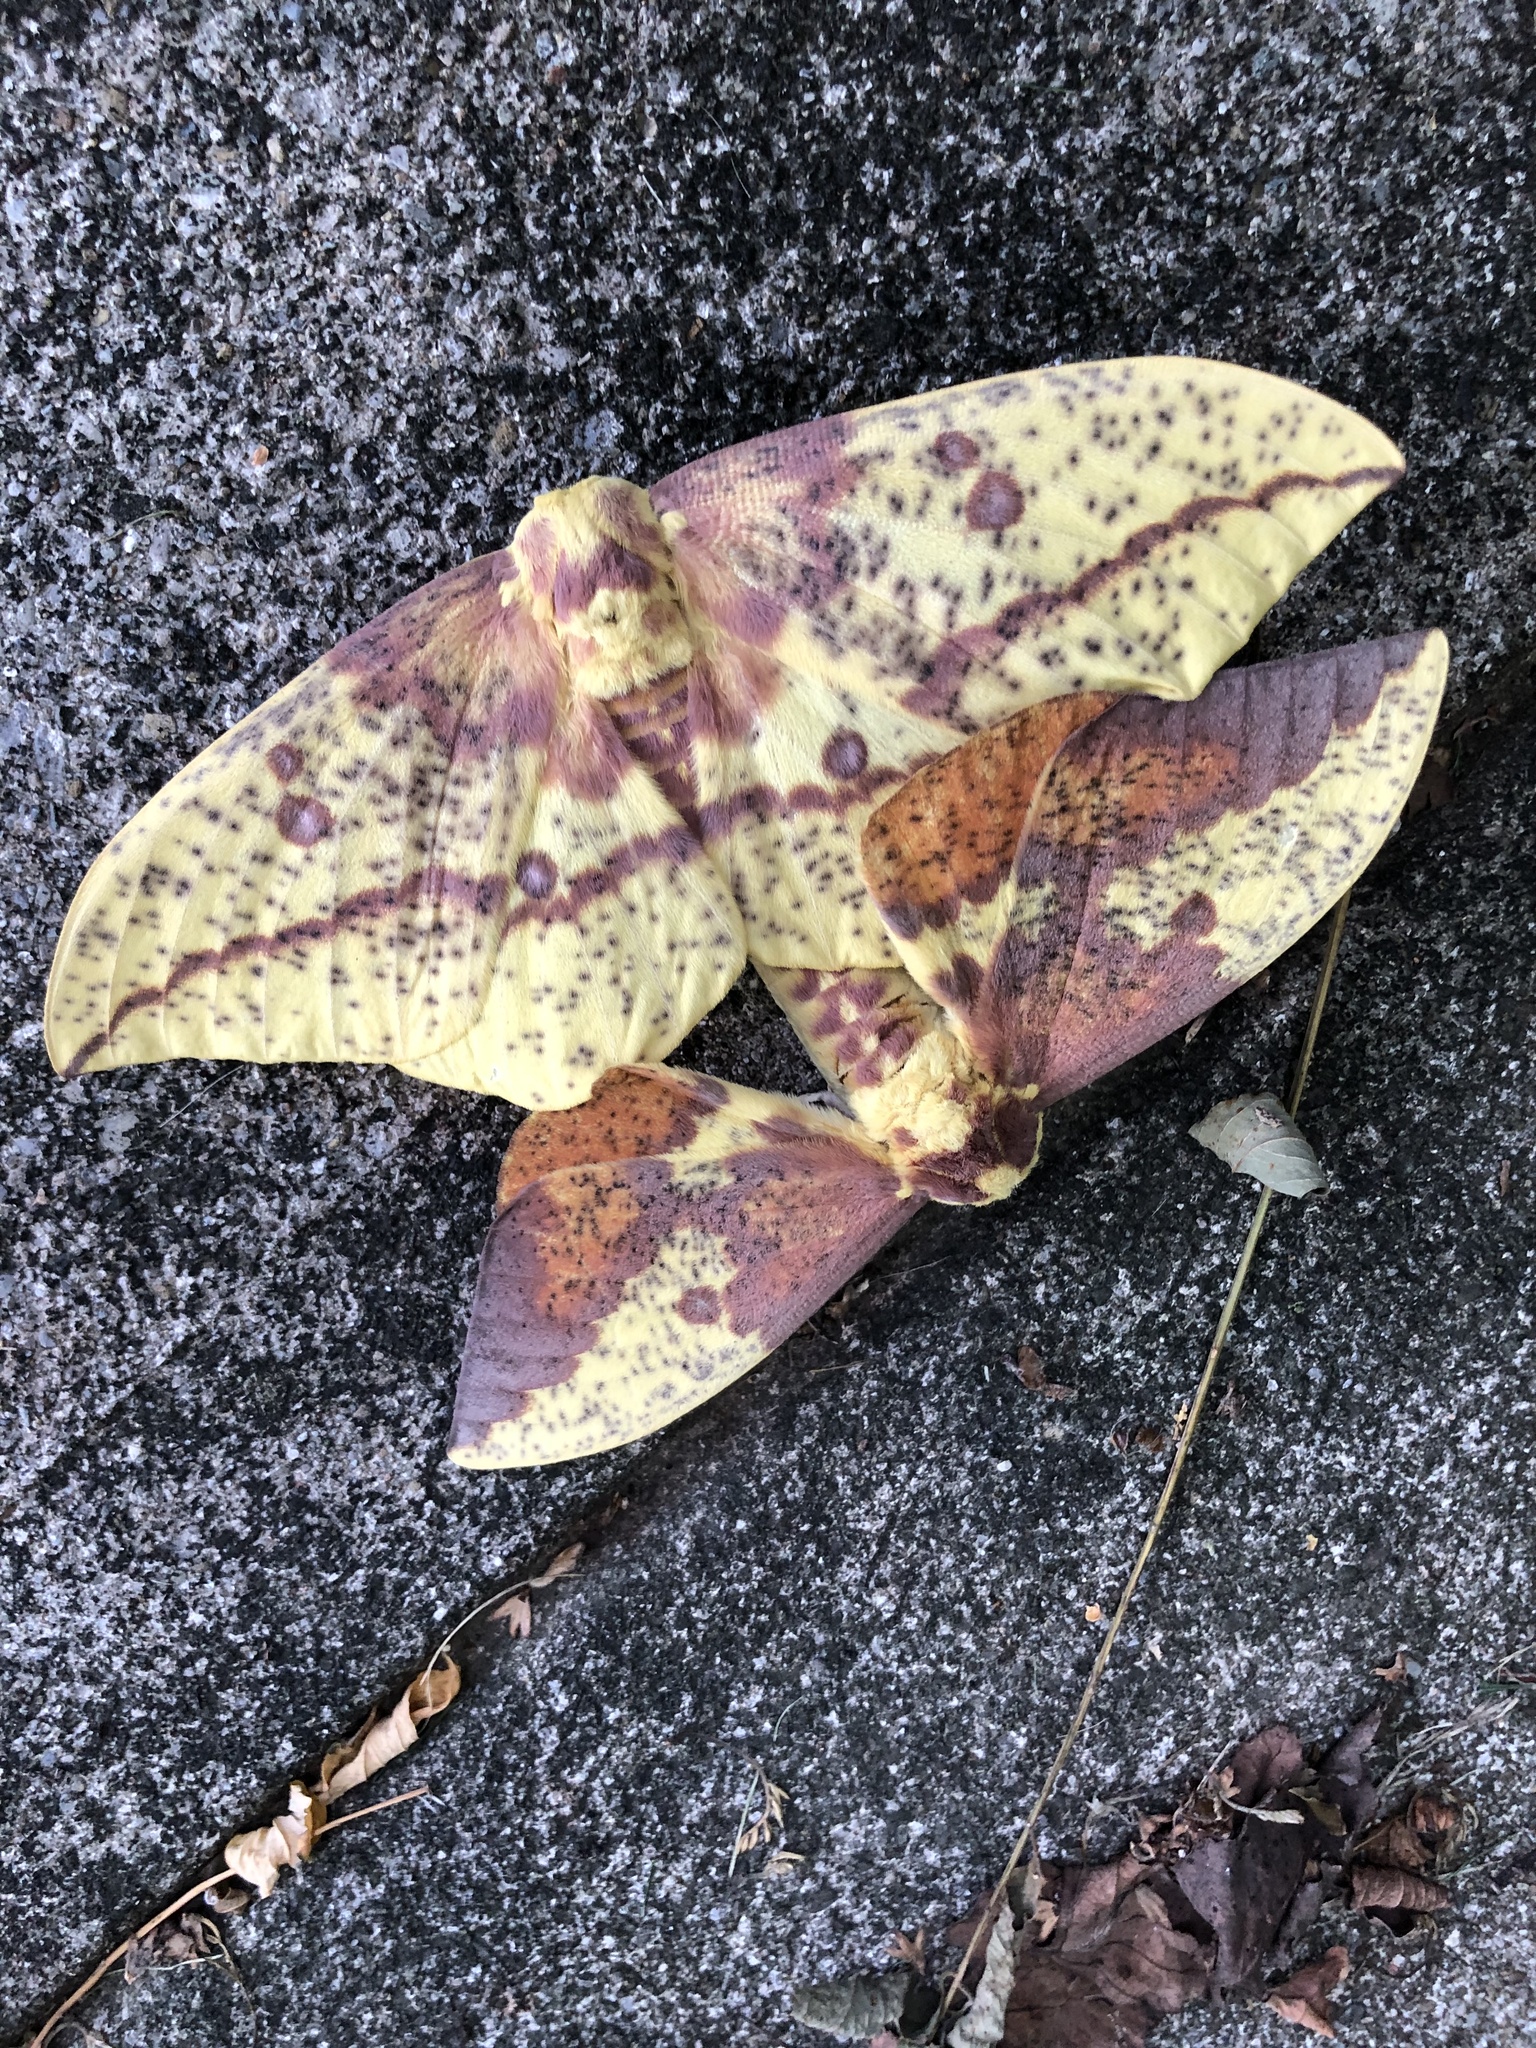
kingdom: Animalia
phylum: Arthropoda
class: Insecta
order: Lepidoptera
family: Saturniidae
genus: Eacles
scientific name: Eacles imperialis
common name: Imperial moth
